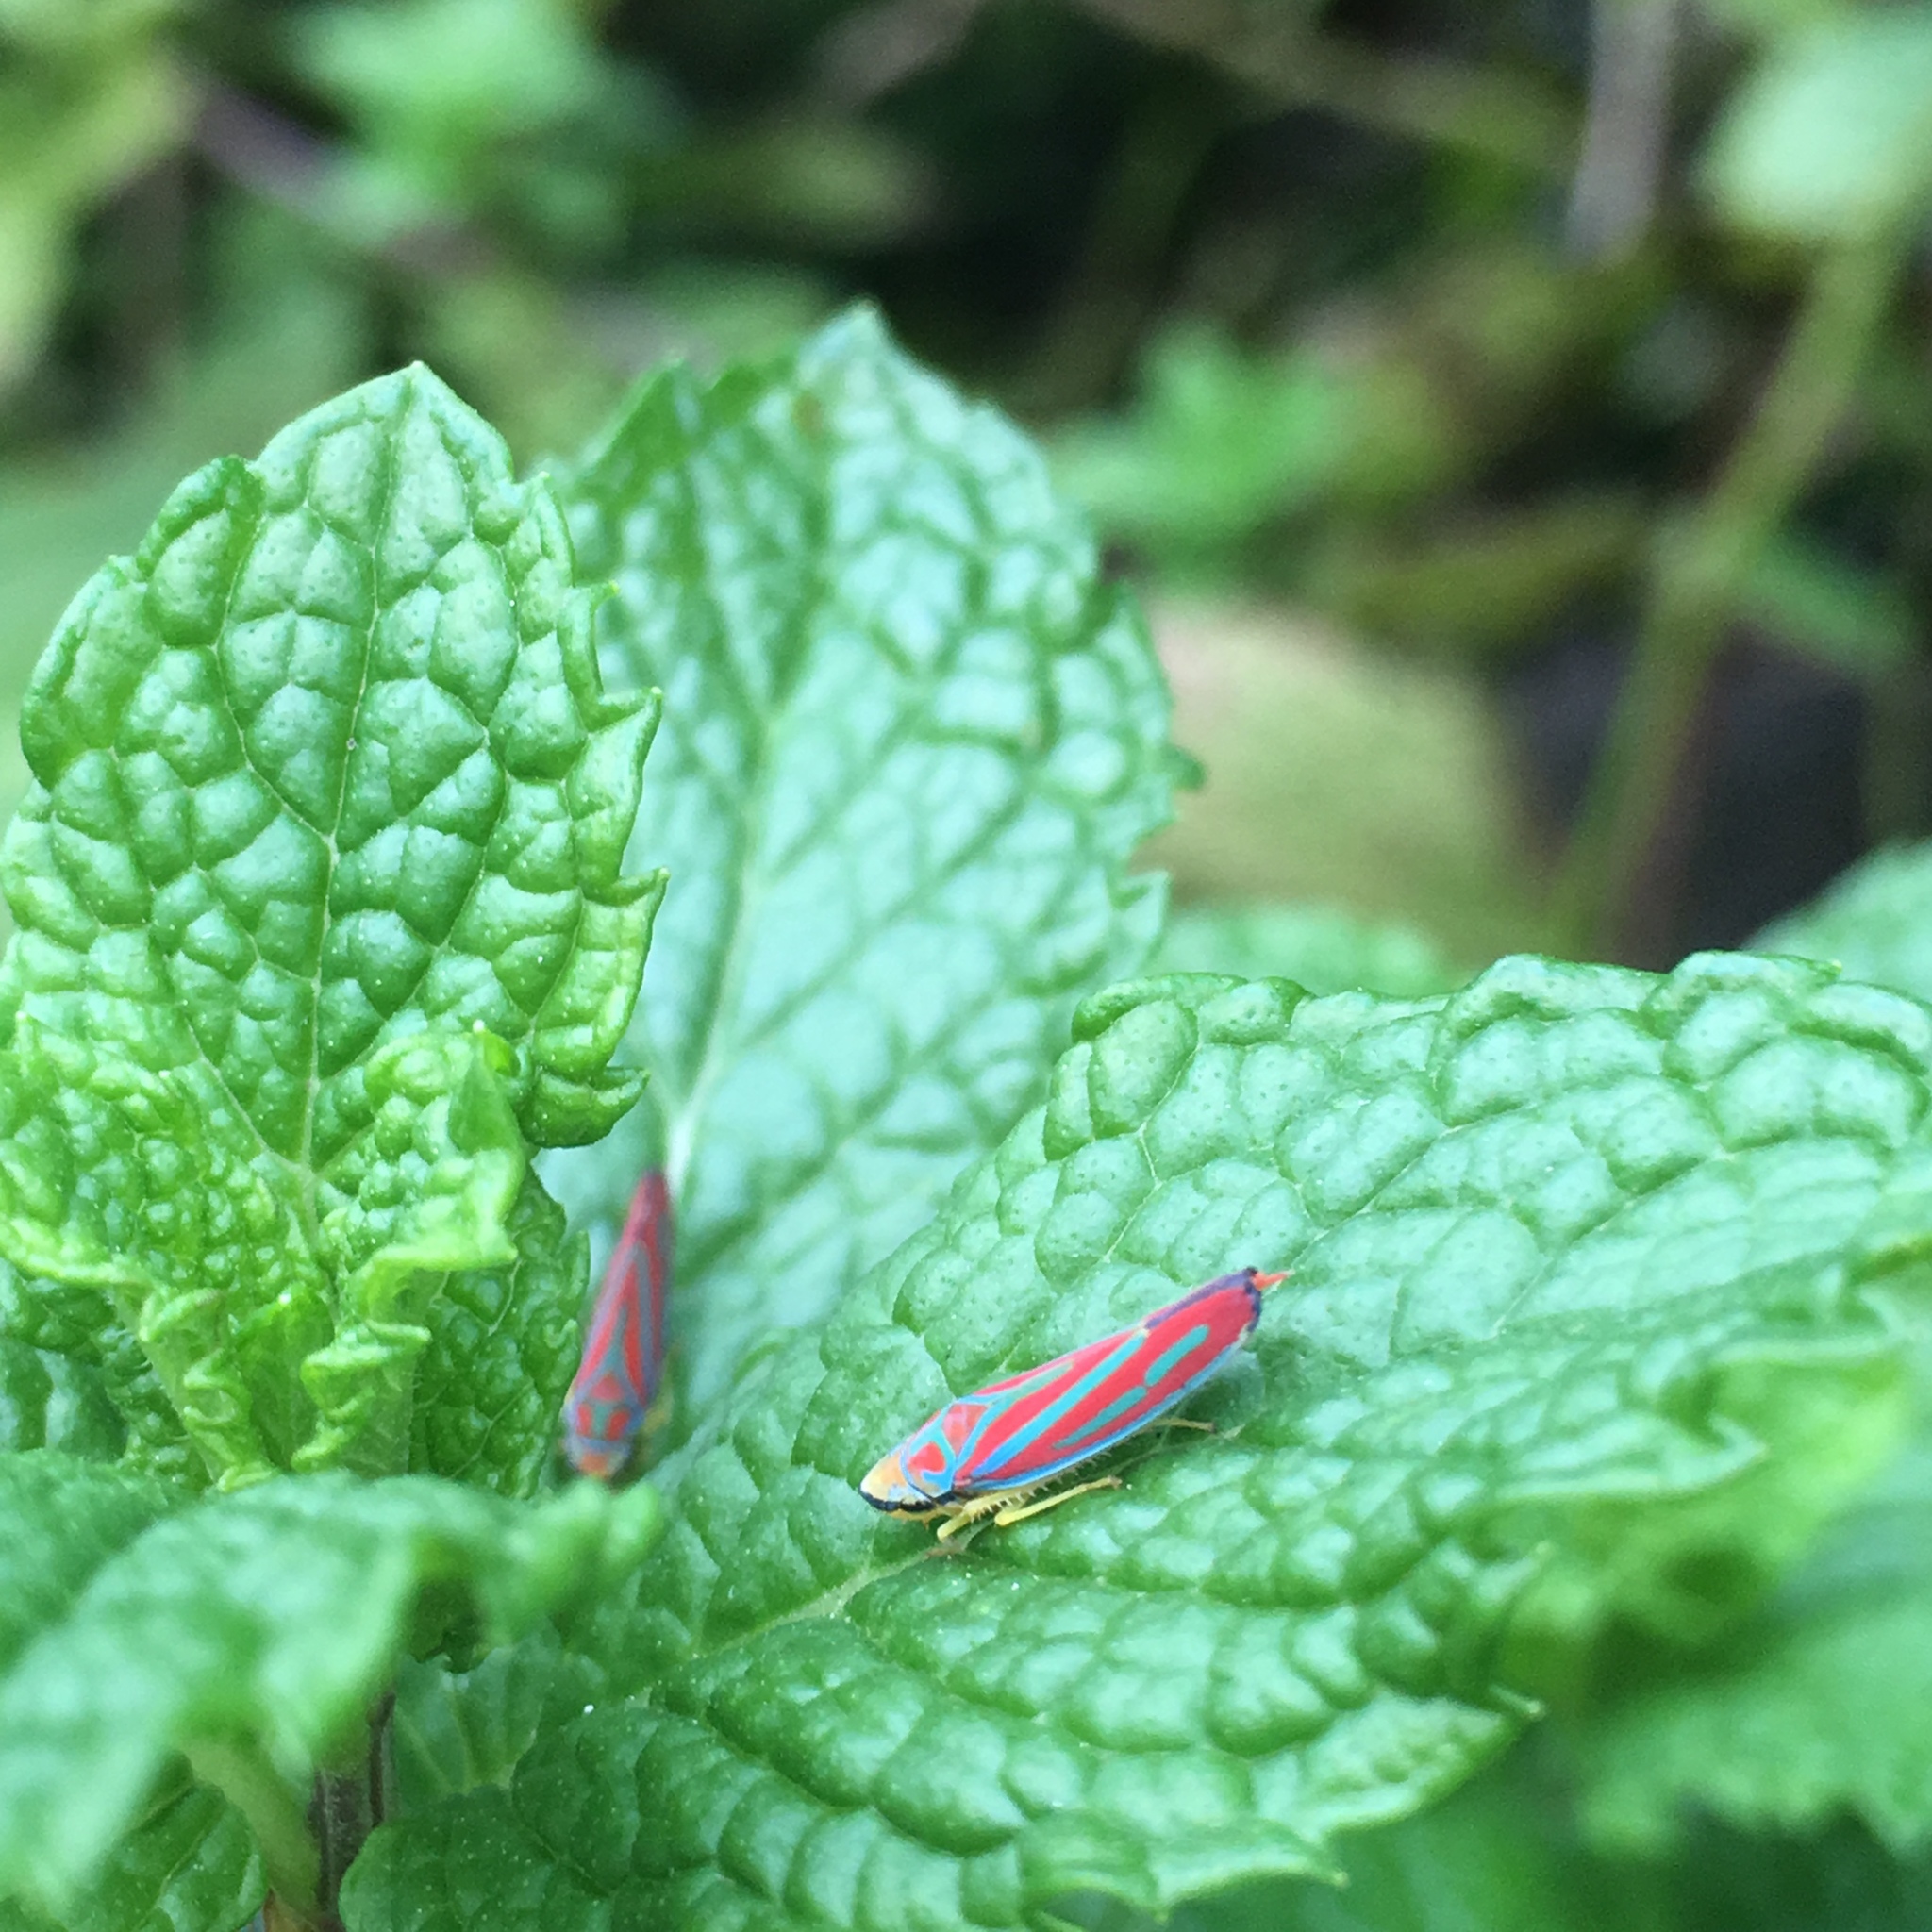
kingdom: Animalia
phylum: Arthropoda
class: Insecta
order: Hemiptera
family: Cicadellidae
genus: Graphocephala
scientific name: Graphocephala coccinea
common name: Candy-striped leafhopper
